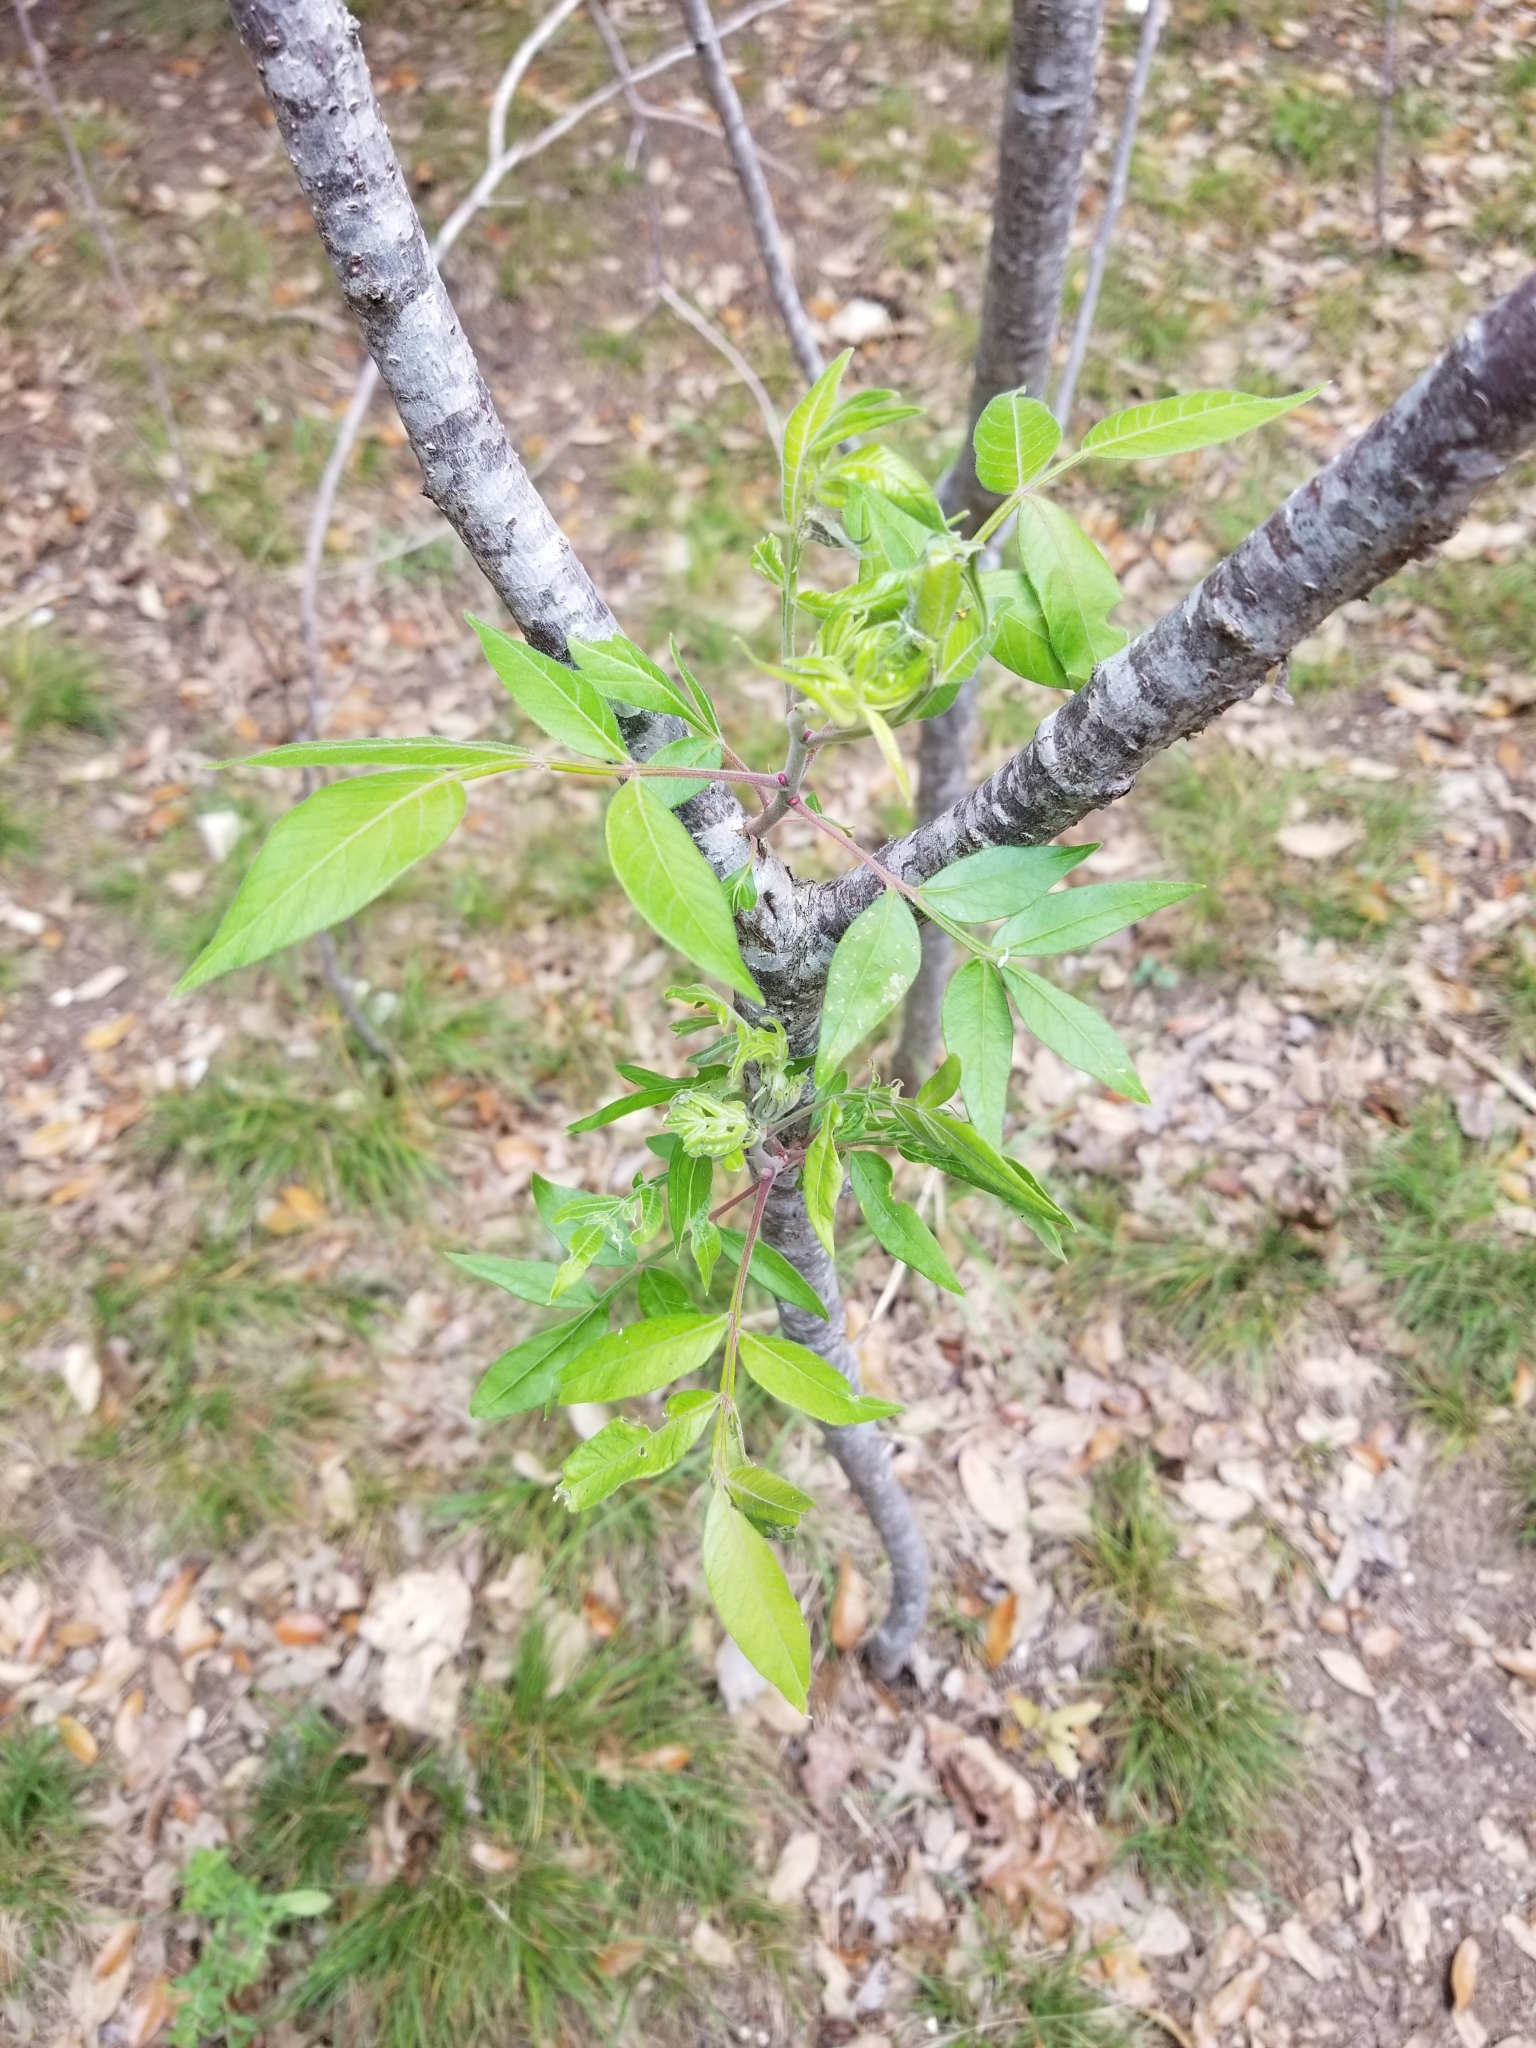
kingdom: Plantae
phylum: Tracheophyta
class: Magnoliopsida
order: Sapindales
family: Anacardiaceae
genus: Rhus
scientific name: Rhus lanceolata
